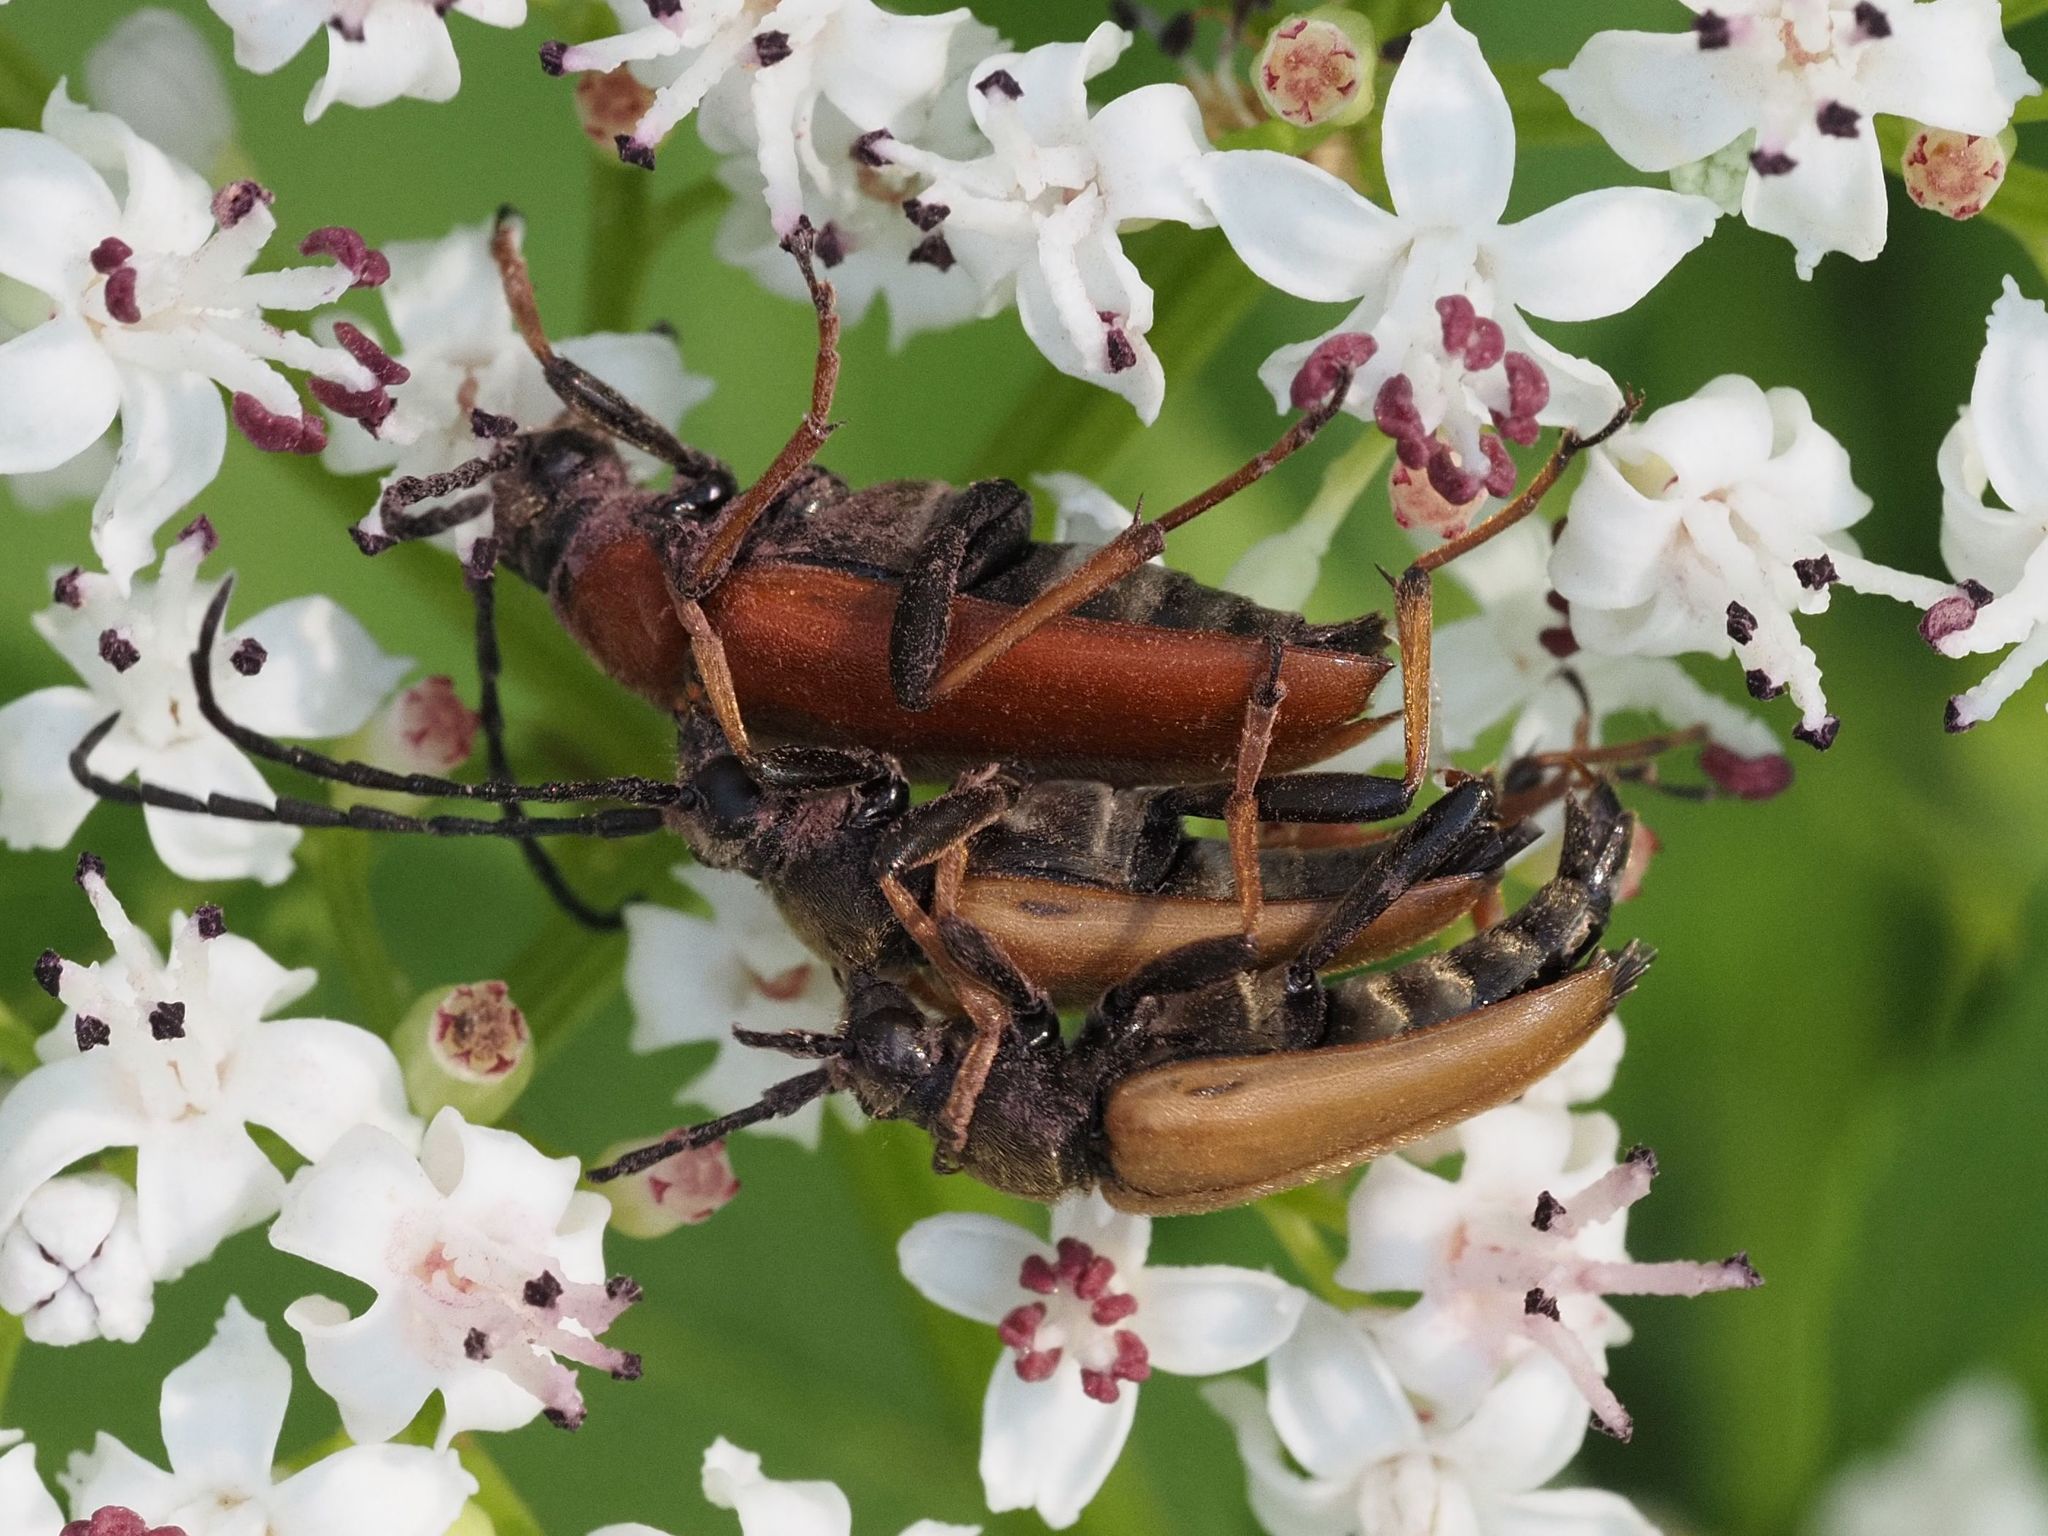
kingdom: Animalia
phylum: Arthropoda
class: Insecta
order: Coleoptera
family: Cerambycidae
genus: Stictoleptura
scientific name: Stictoleptura rubra
